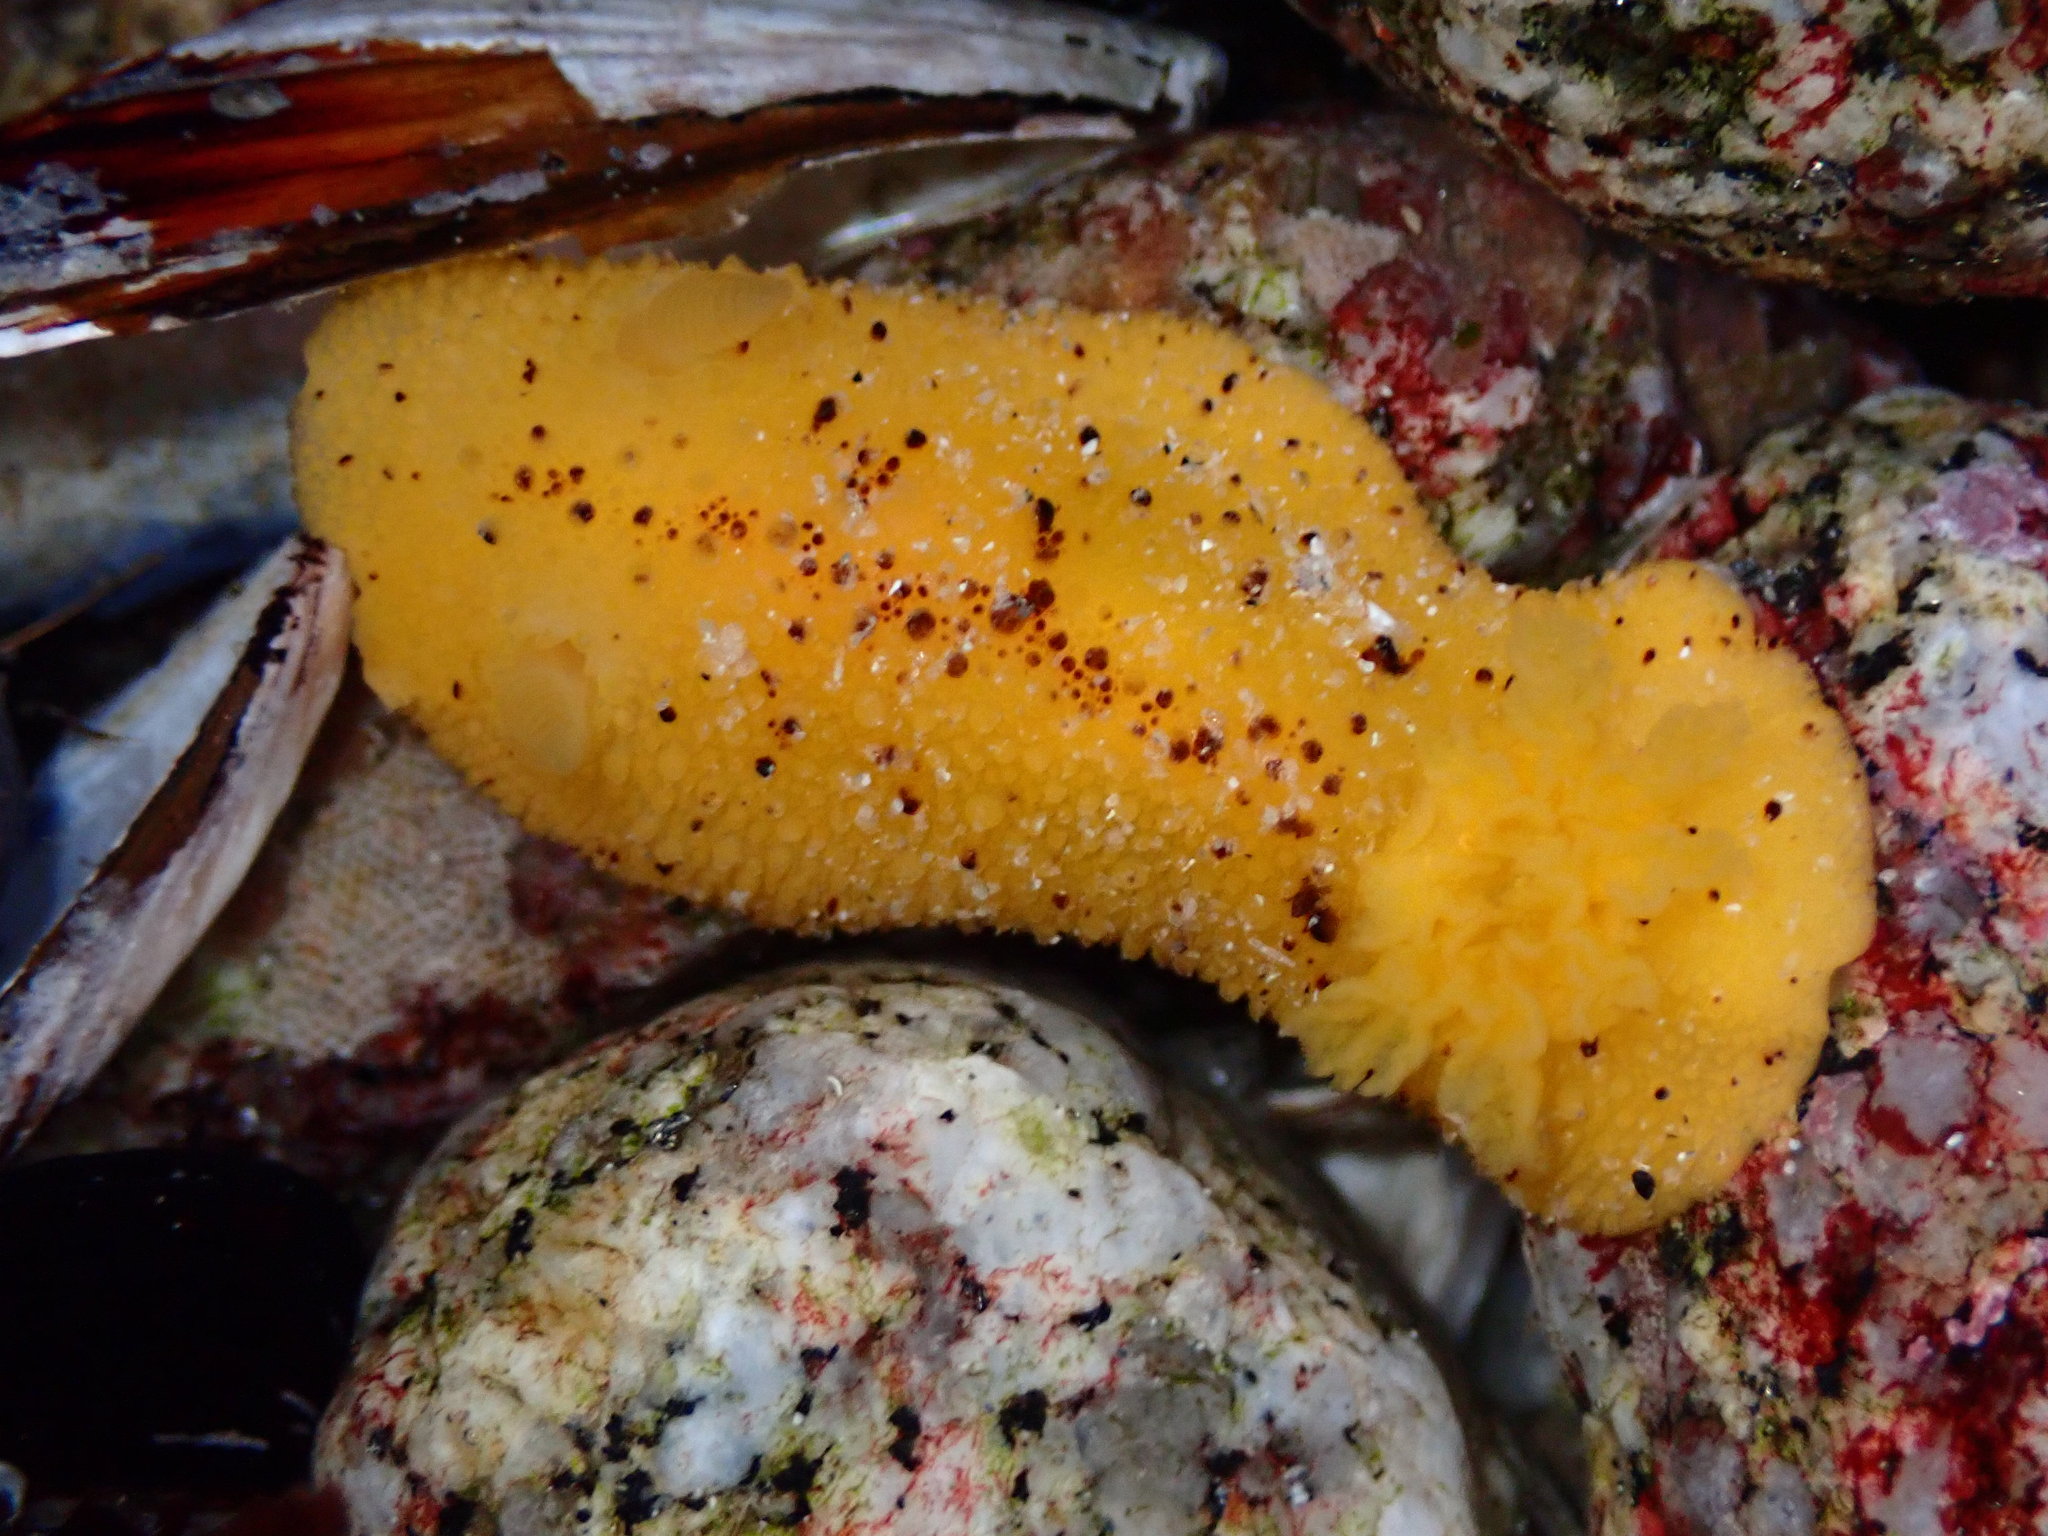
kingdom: Animalia
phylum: Mollusca
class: Gastropoda
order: Nudibranchia
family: Dorididae
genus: Doris
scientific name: Doris montereyensis
